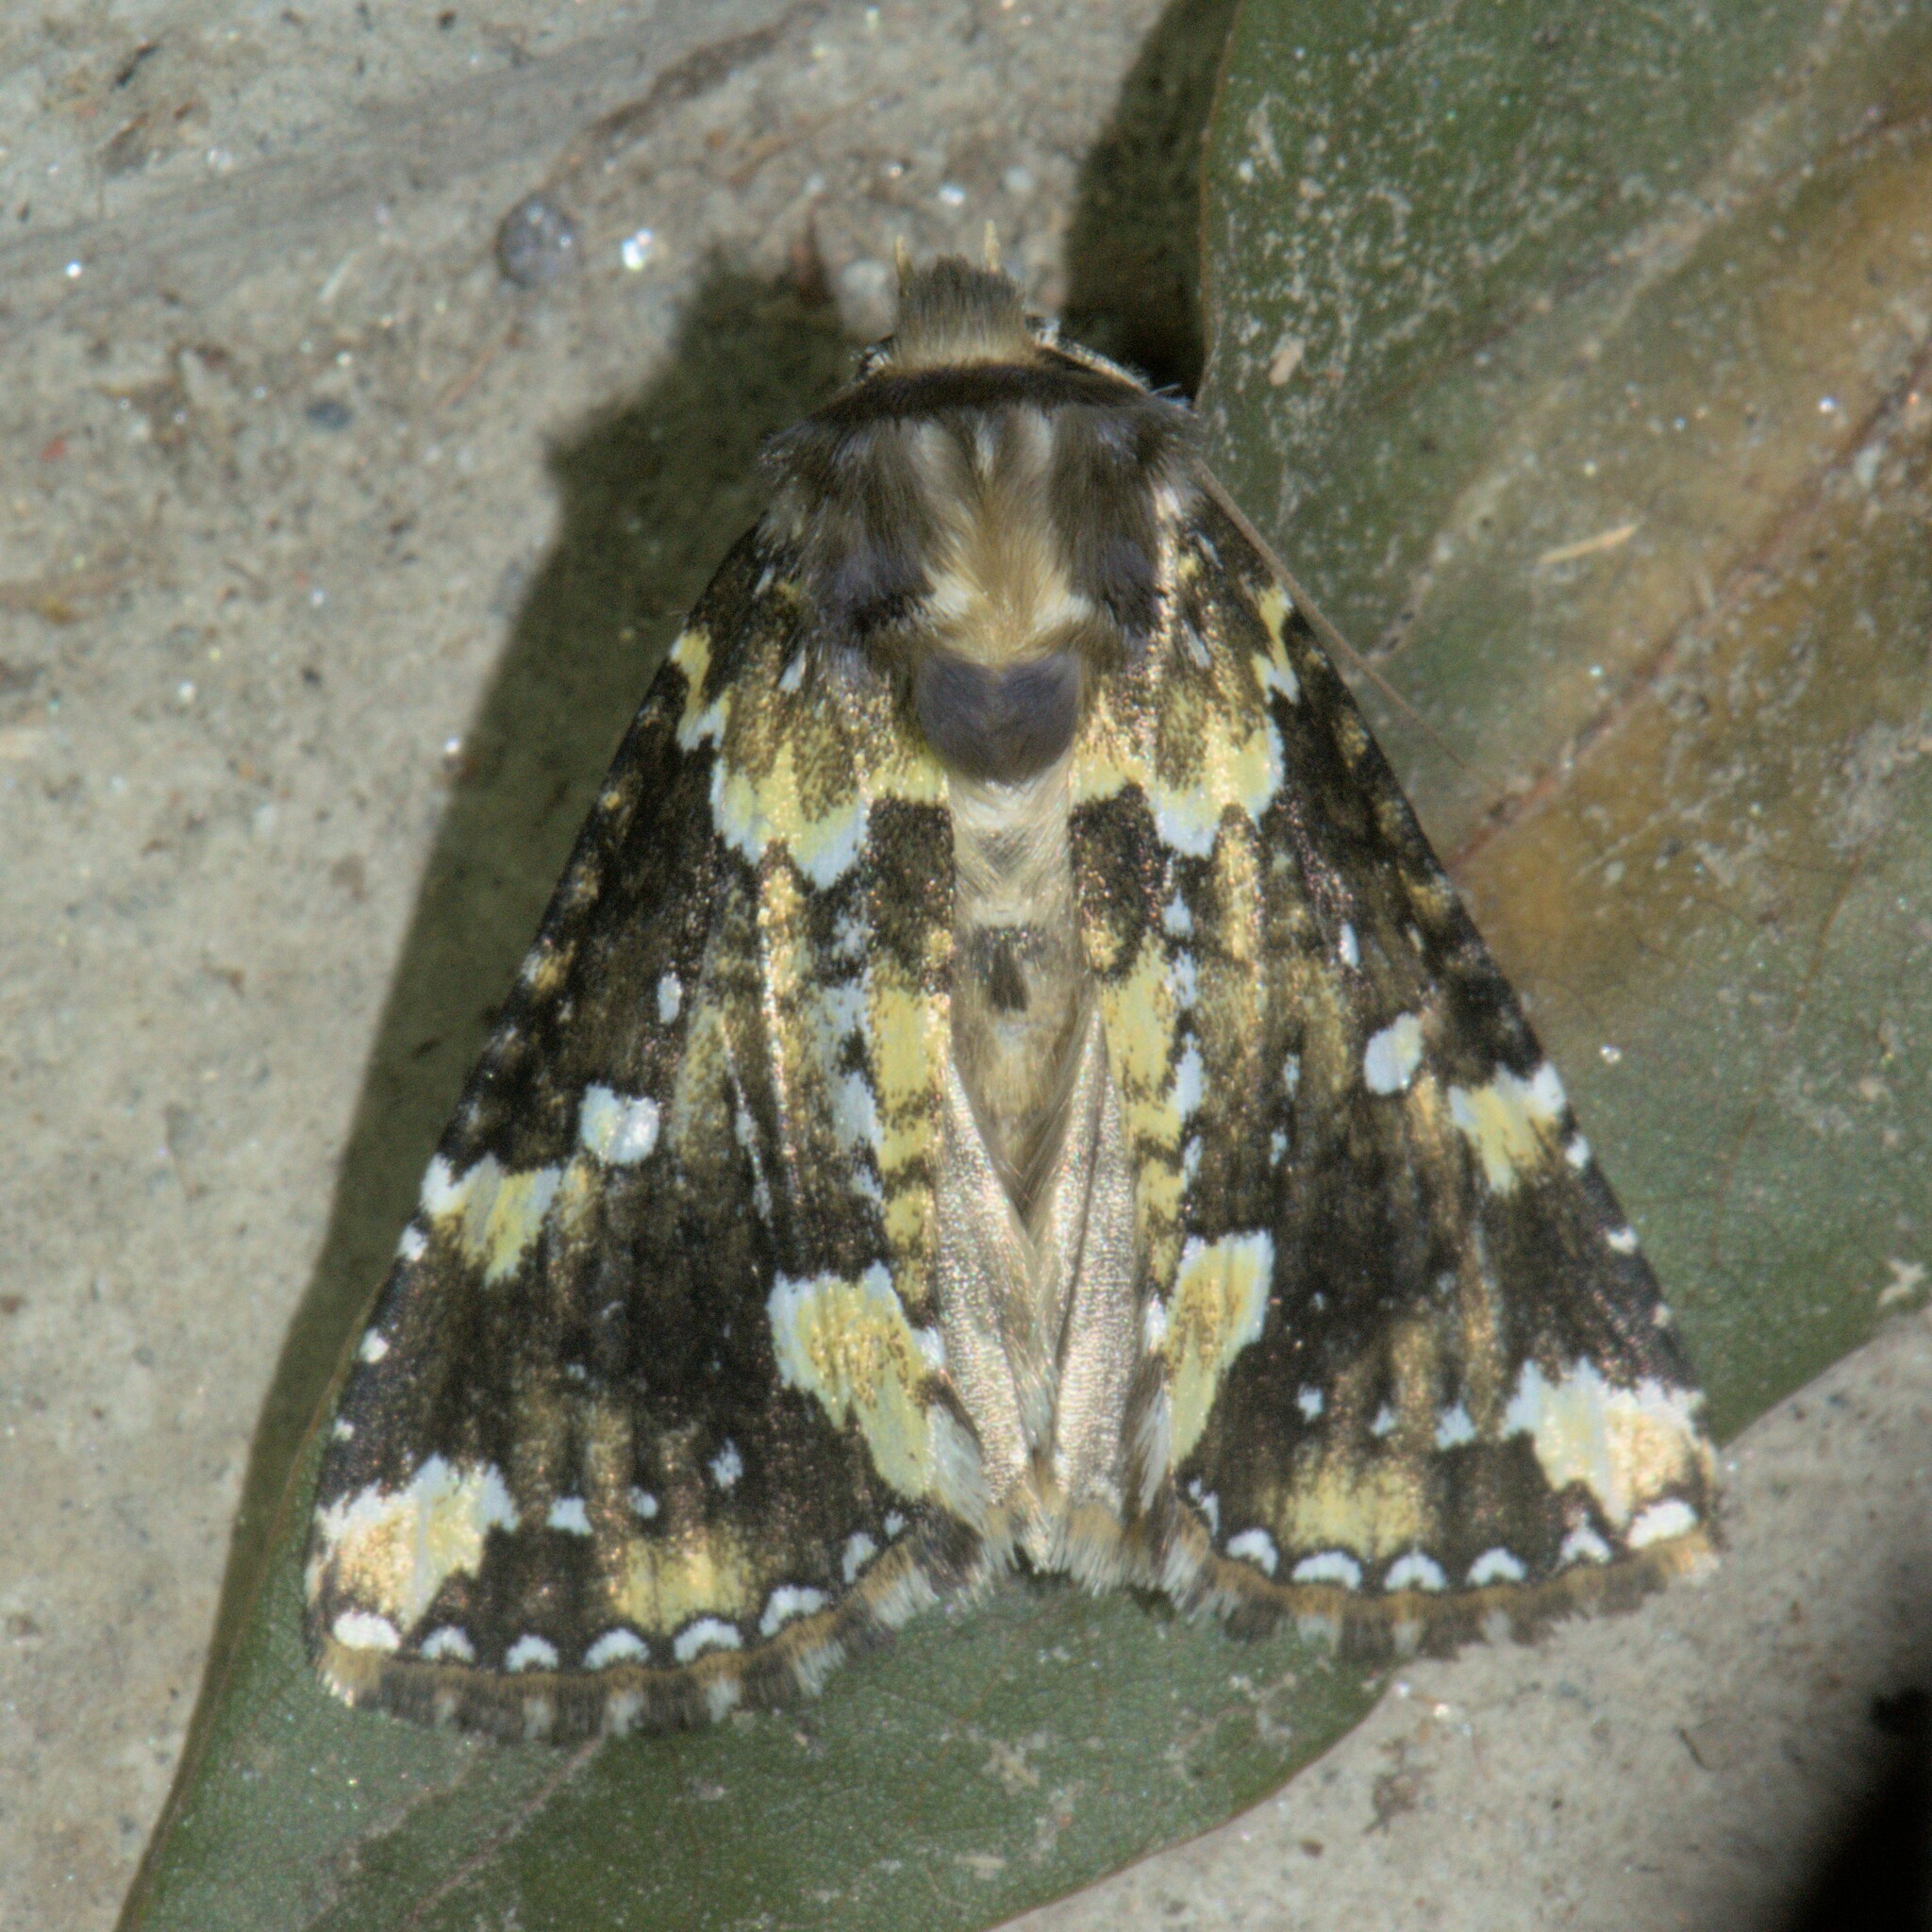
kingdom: Animalia
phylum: Arthropoda
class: Insecta
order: Lepidoptera
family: Drepanidae
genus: Gaurena
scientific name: Gaurena florens
